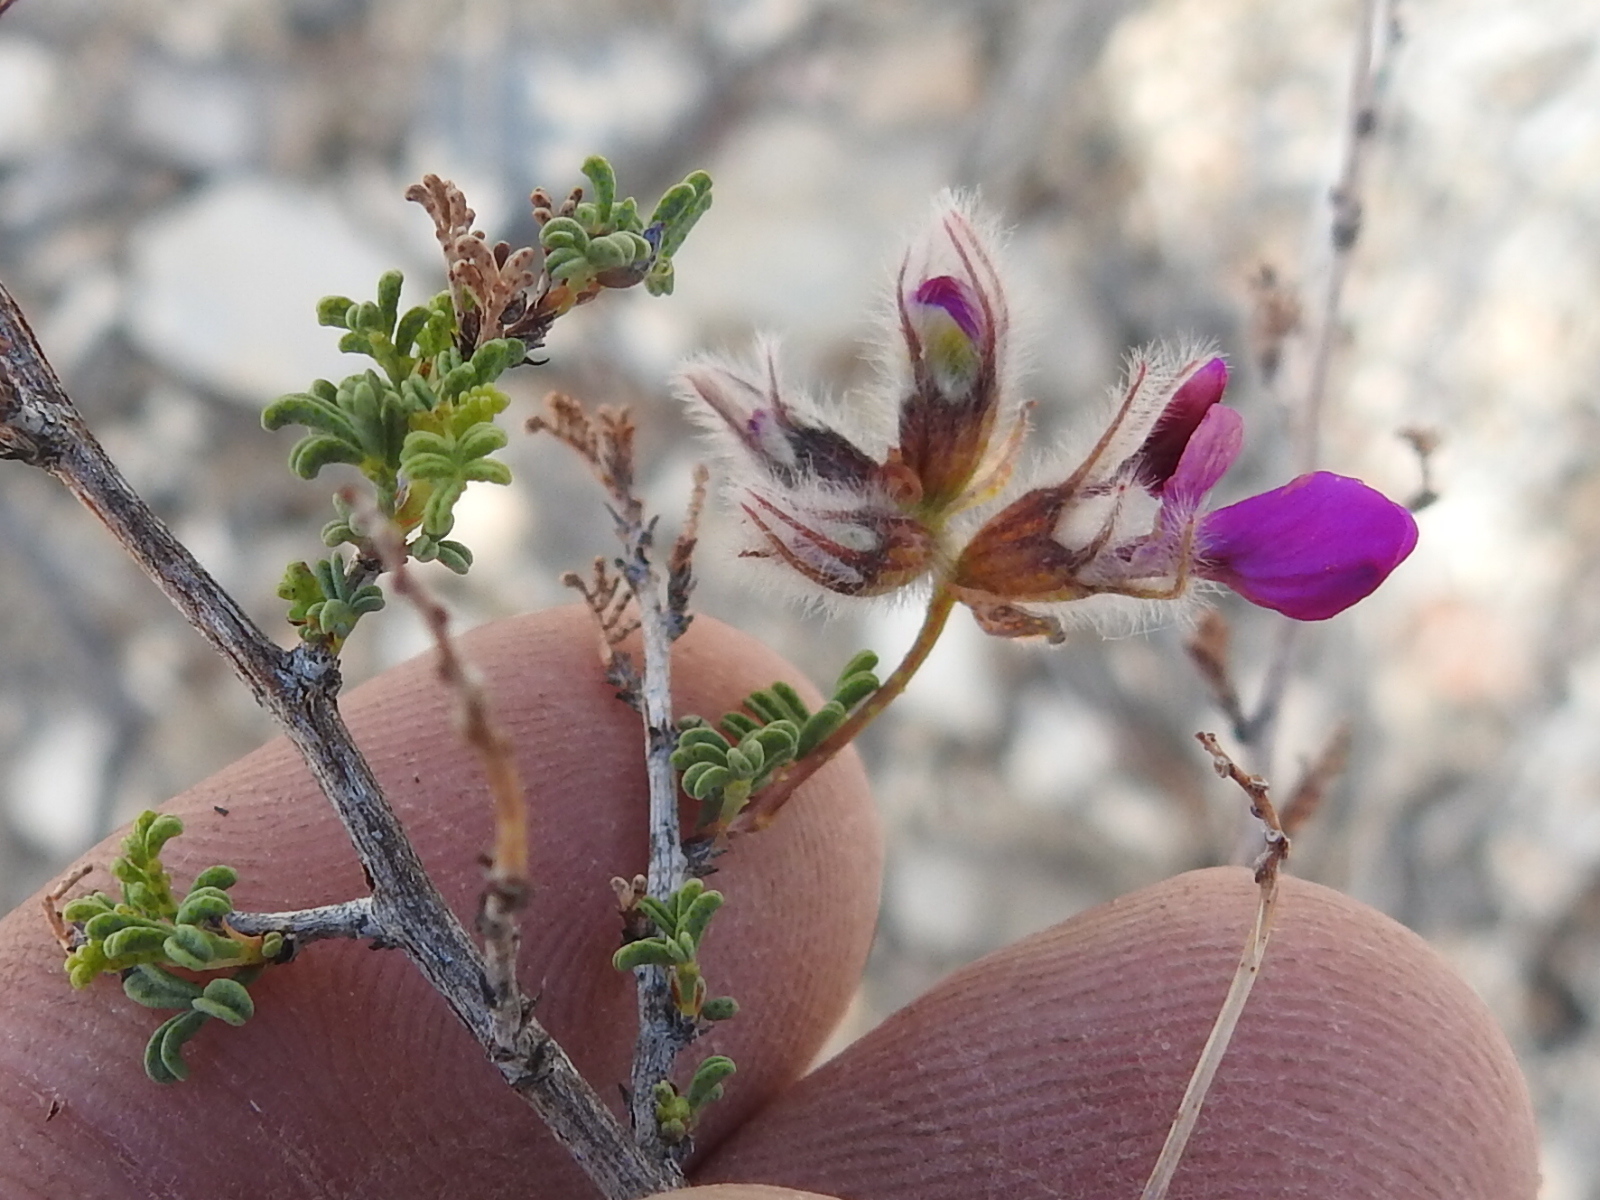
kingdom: Plantae
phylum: Tracheophyta
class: Magnoliopsida
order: Fabales
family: Fabaceae
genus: Dalea
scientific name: Dalea formosa
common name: Feather-plume dalea
